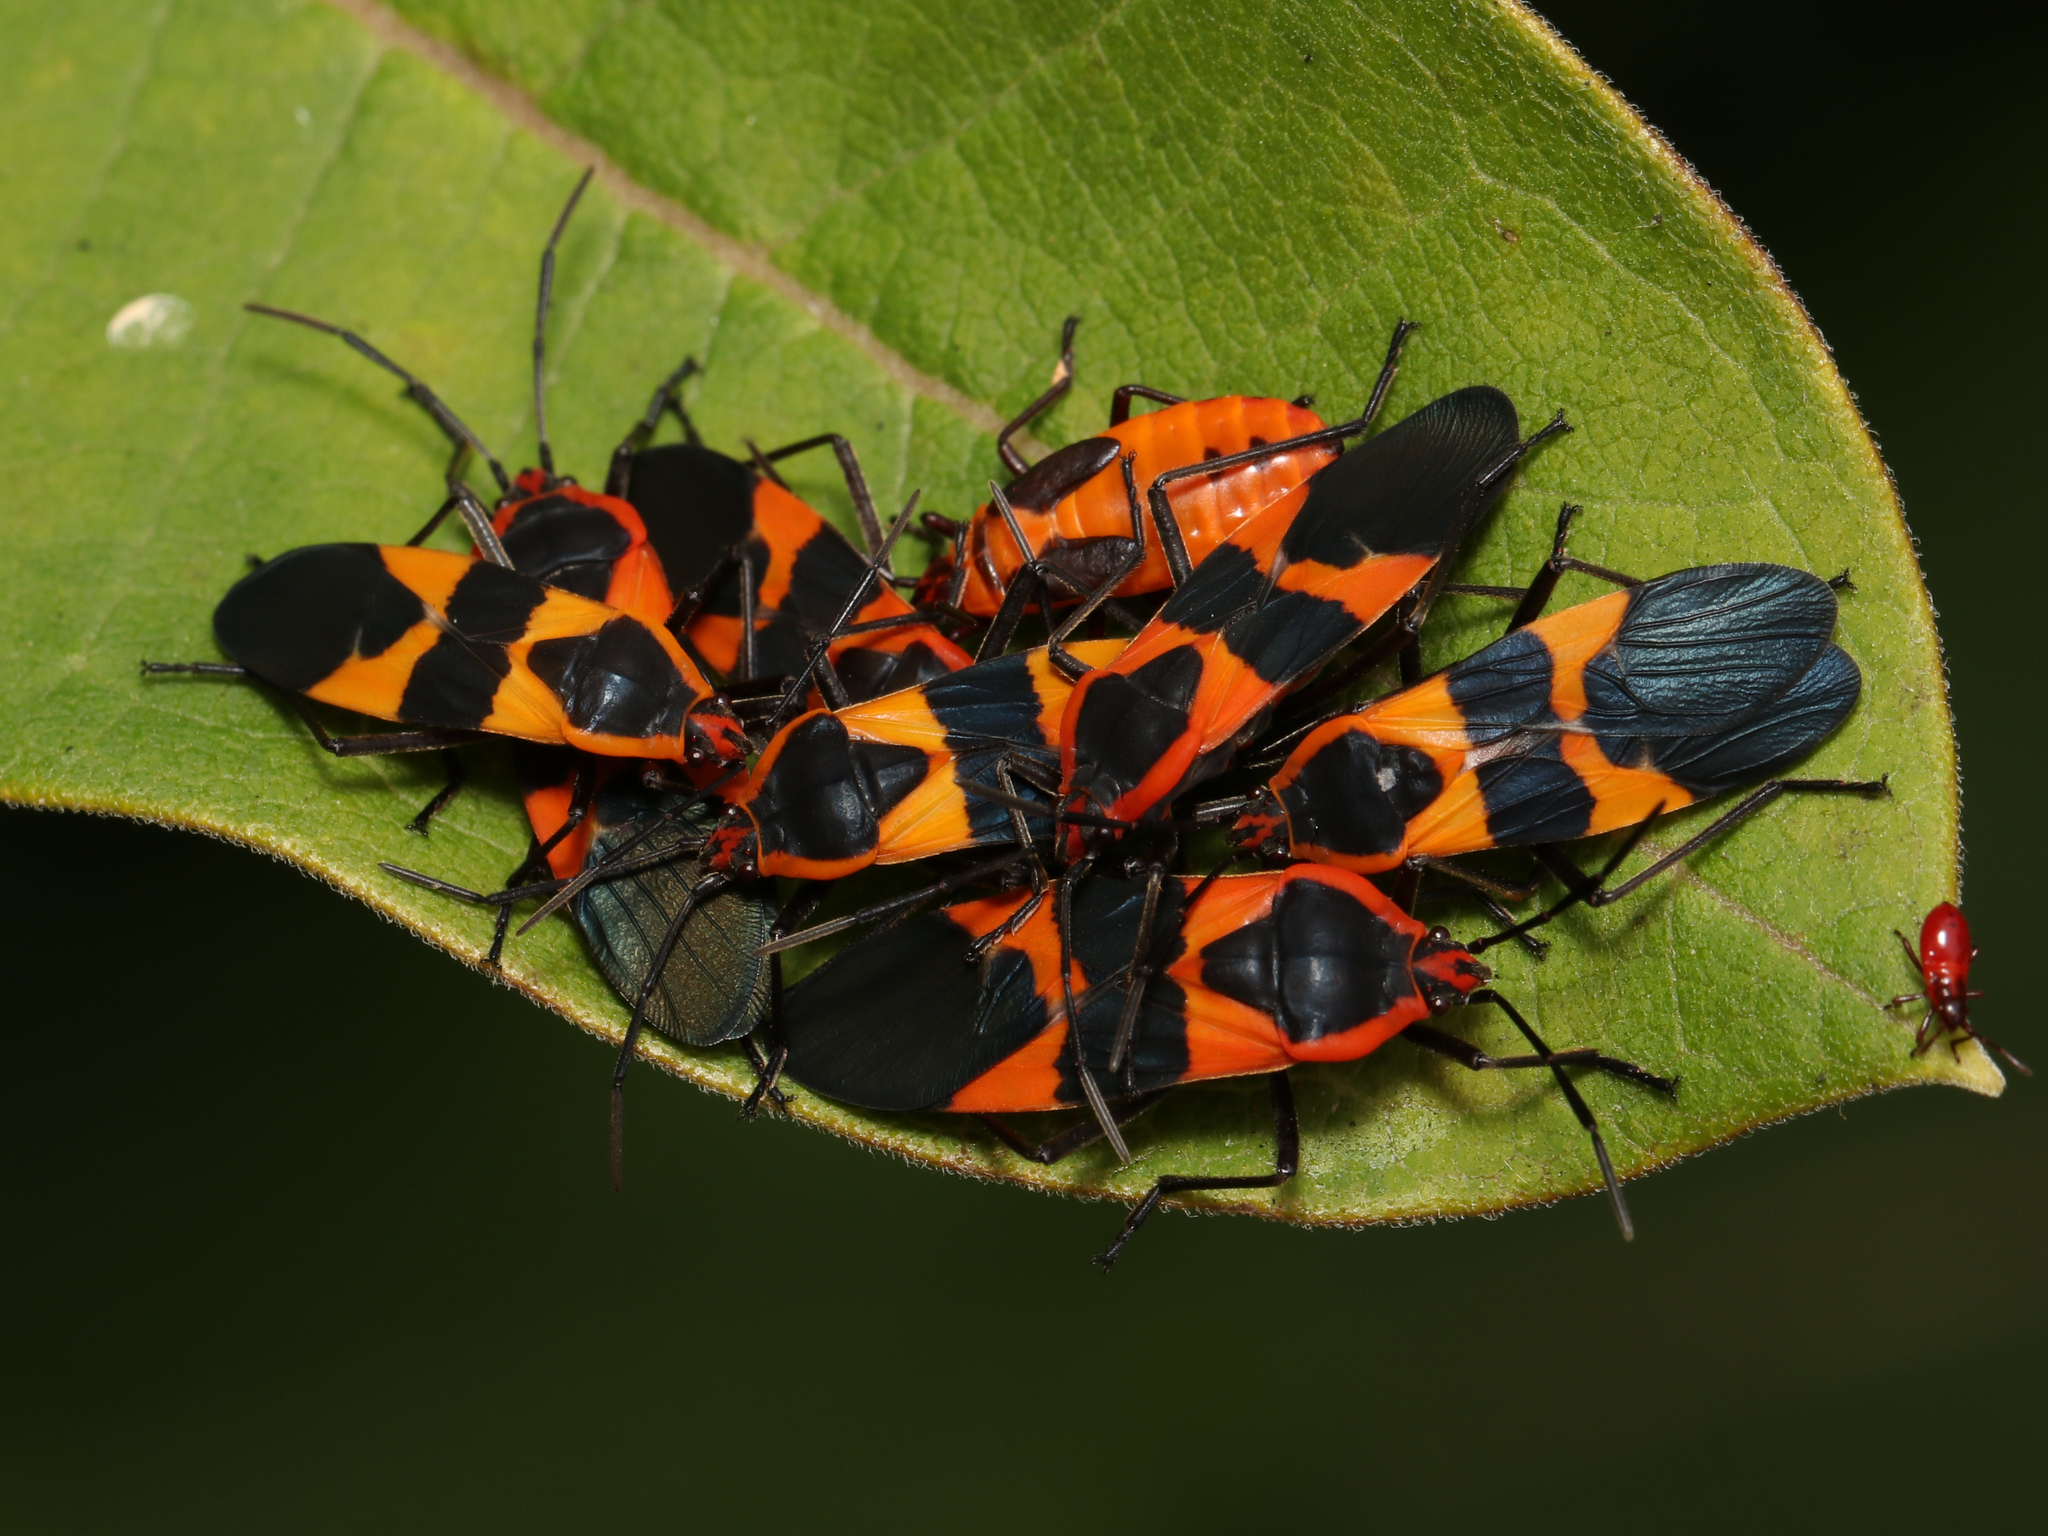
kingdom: Animalia
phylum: Arthropoda
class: Insecta
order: Hemiptera
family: Lygaeidae
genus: Oncopeltus
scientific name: Oncopeltus fasciatus
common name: Large milkweed bug
